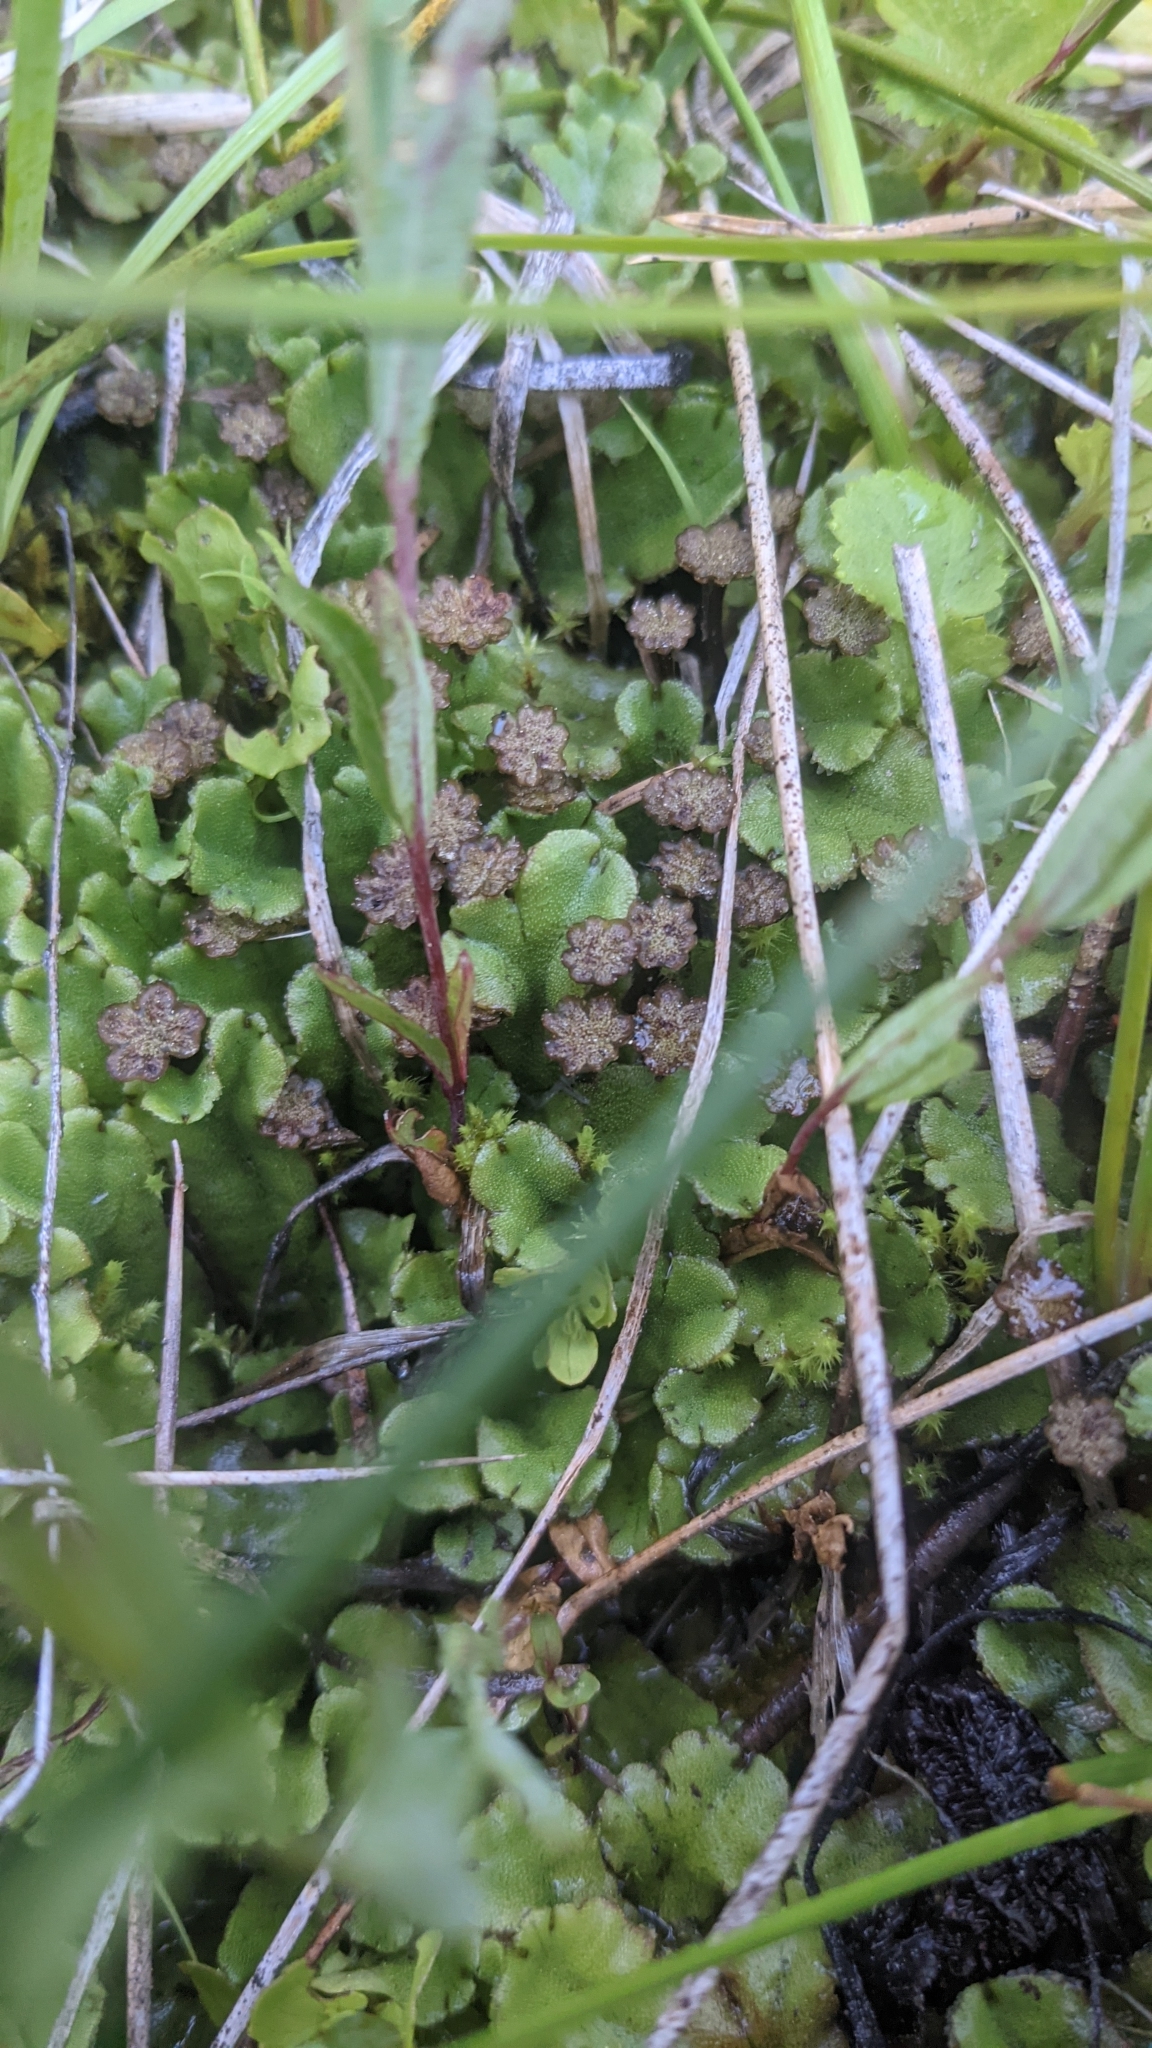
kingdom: Plantae
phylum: Marchantiophyta
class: Marchantiopsida
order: Marchantiales
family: Marchantiaceae
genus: Marchantia
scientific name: Marchantia polymorpha
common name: Common liverwort
